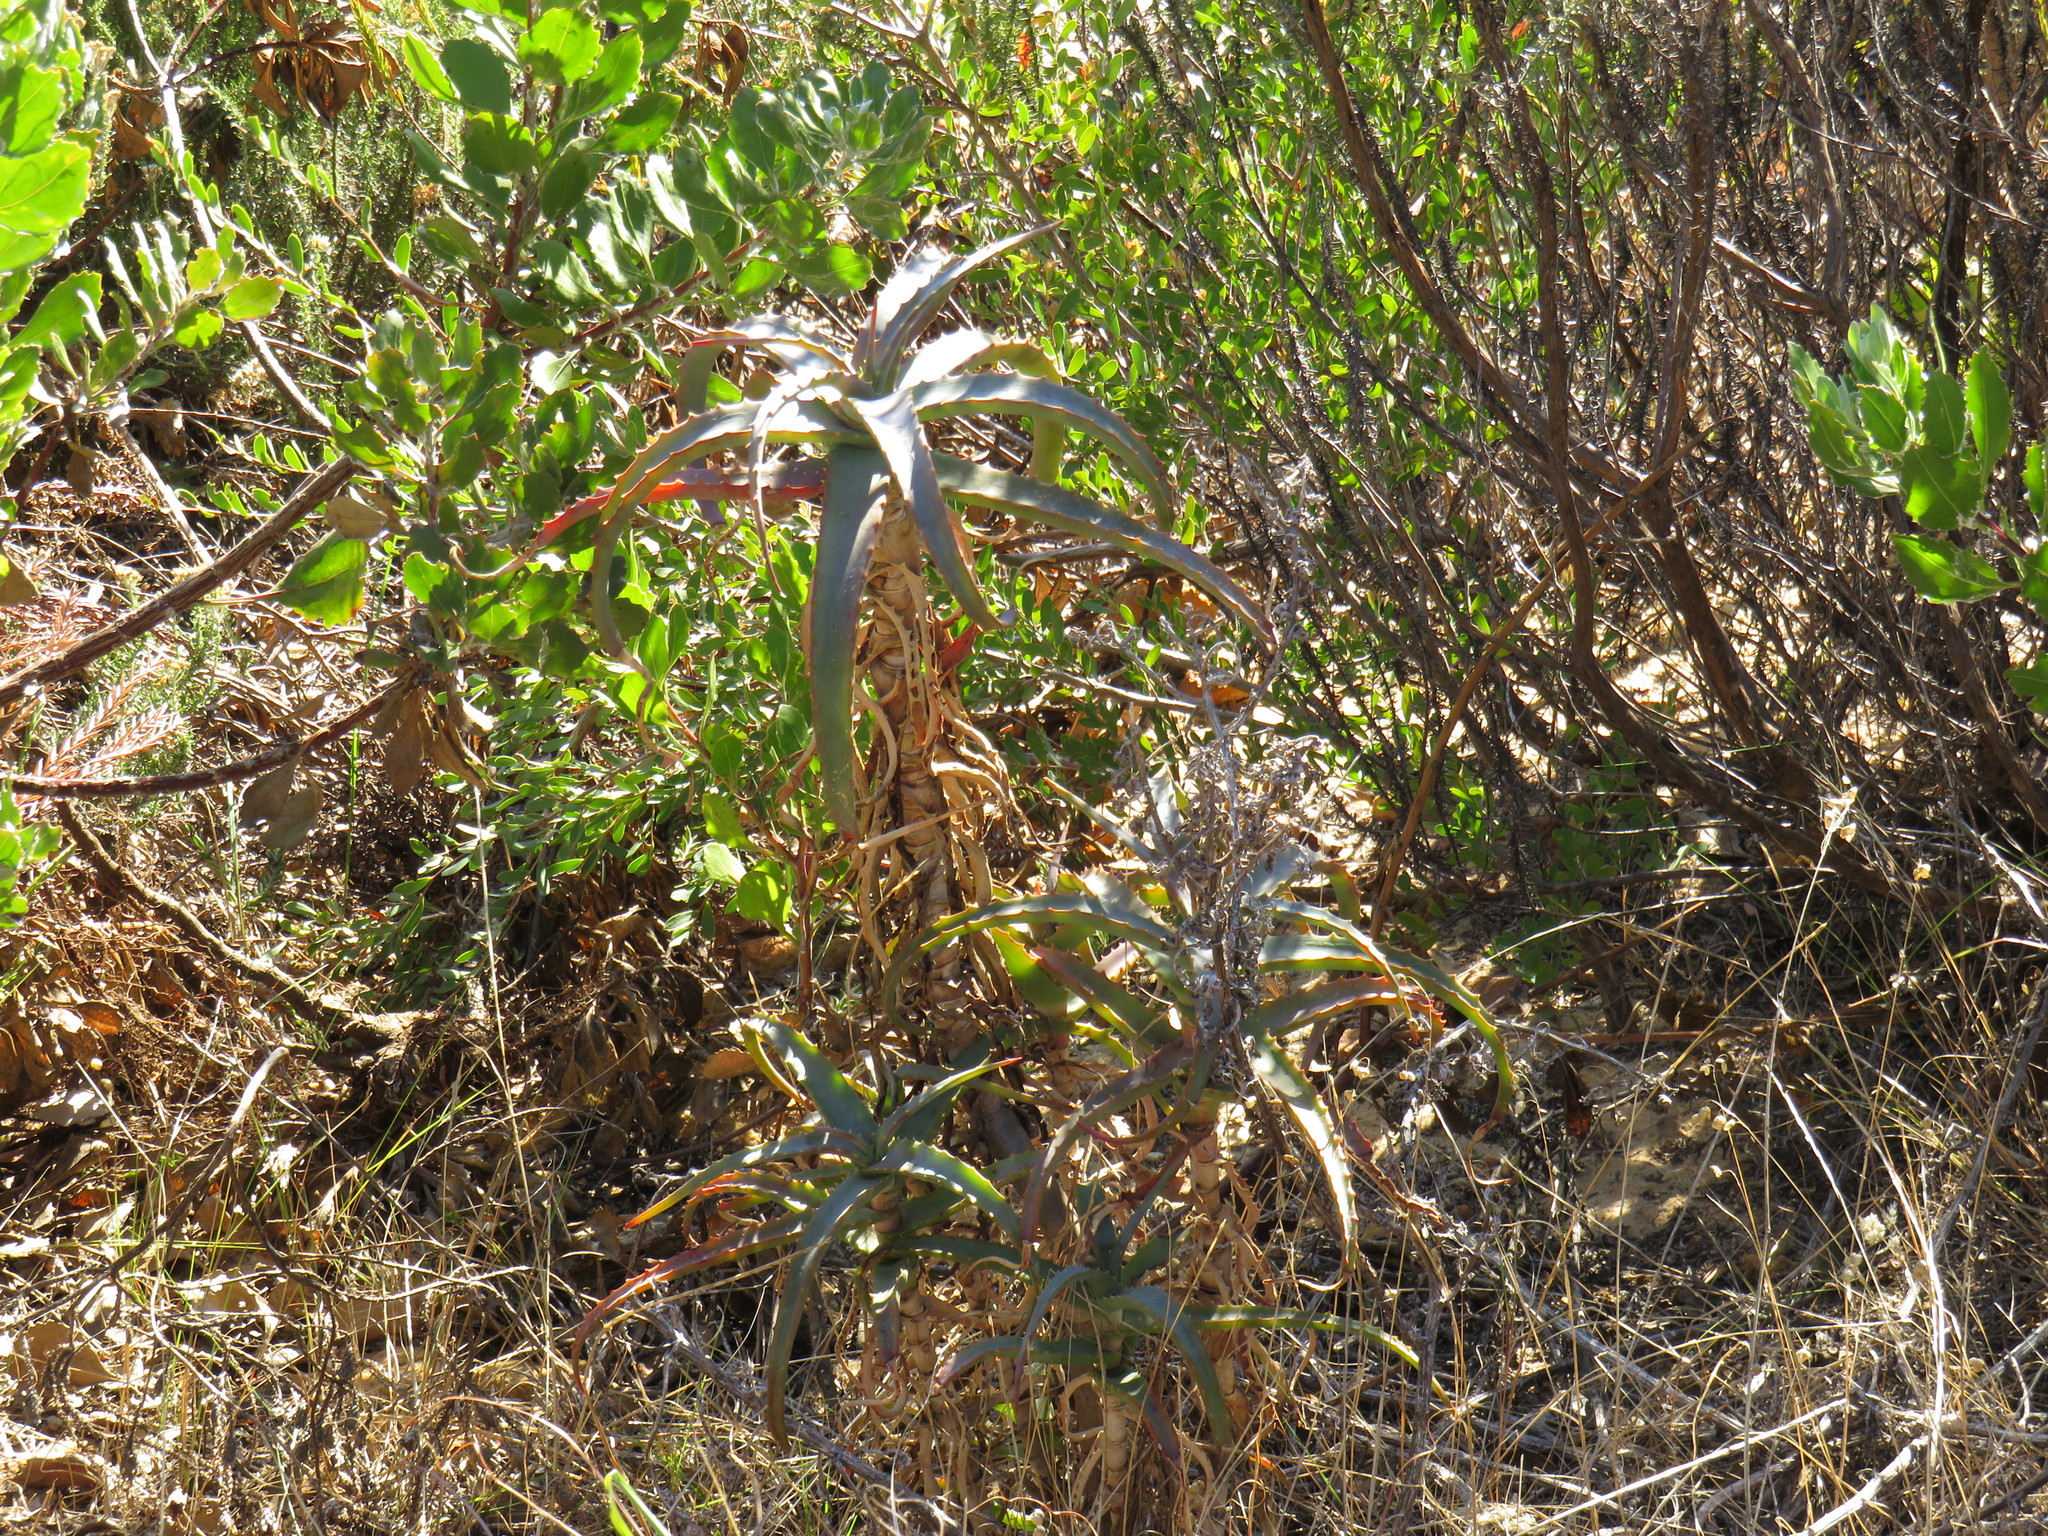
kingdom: Plantae
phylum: Tracheophyta
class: Liliopsida
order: Asparagales
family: Asphodelaceae
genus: Aloe
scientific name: Aloe arborescens
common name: Candelabra aloe
